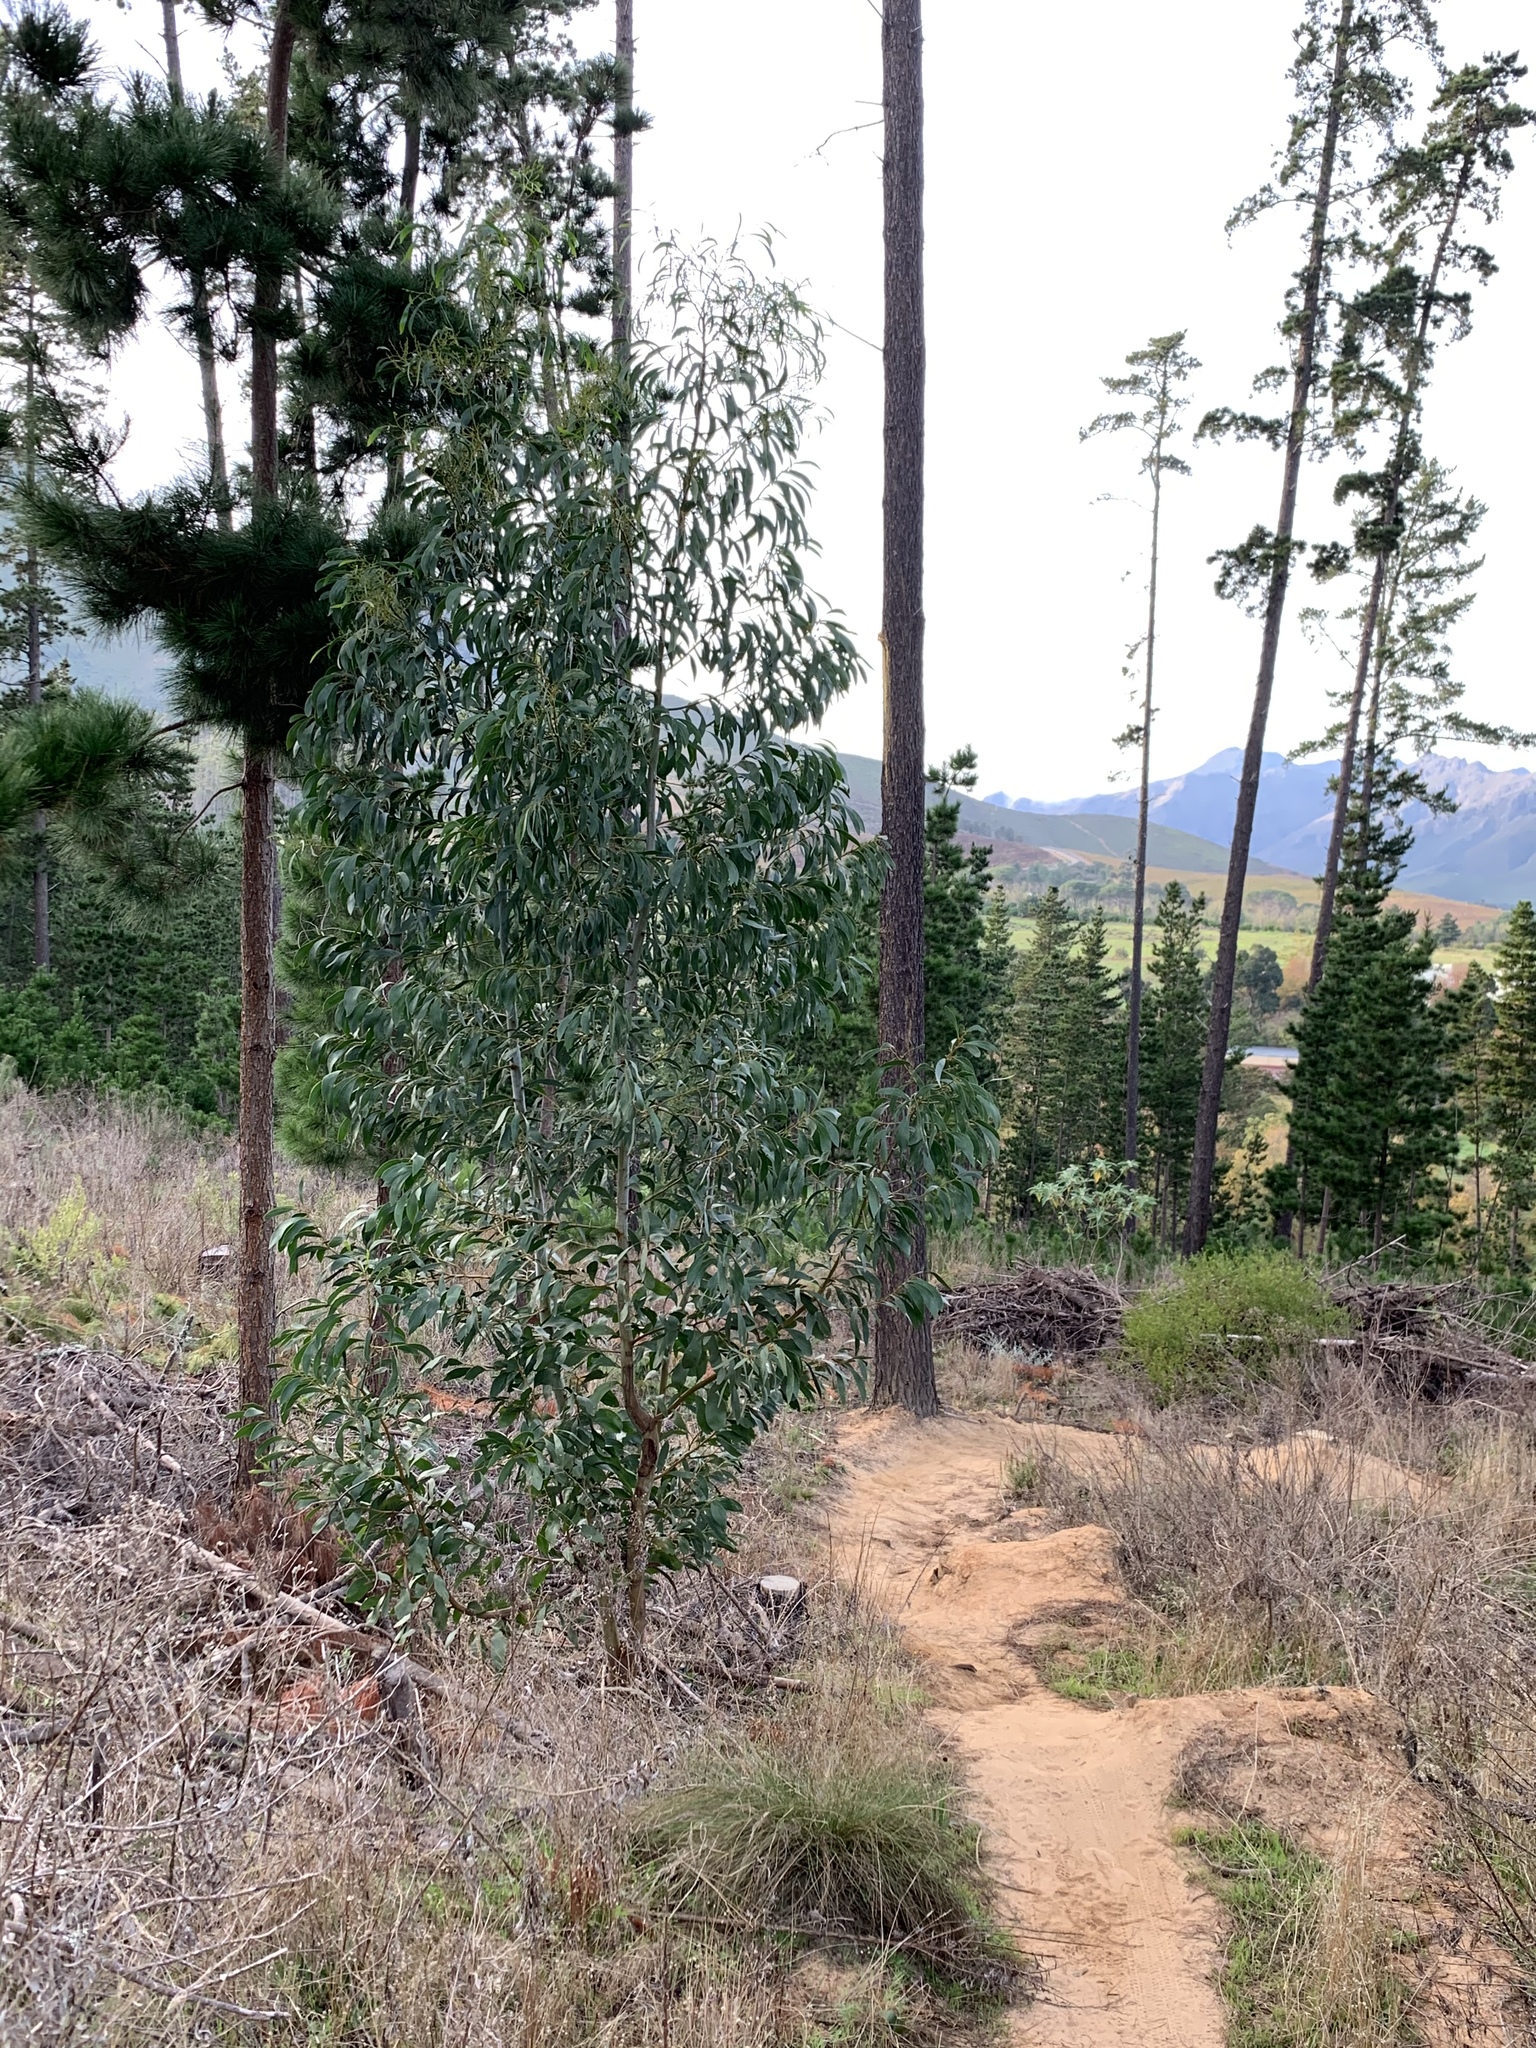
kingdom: Plantae
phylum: Tracheophyta
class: Magnoliopsida
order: Fabales
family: Fabaceae
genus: Acacia
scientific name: Acacia pycnantha
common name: Golden wattle
